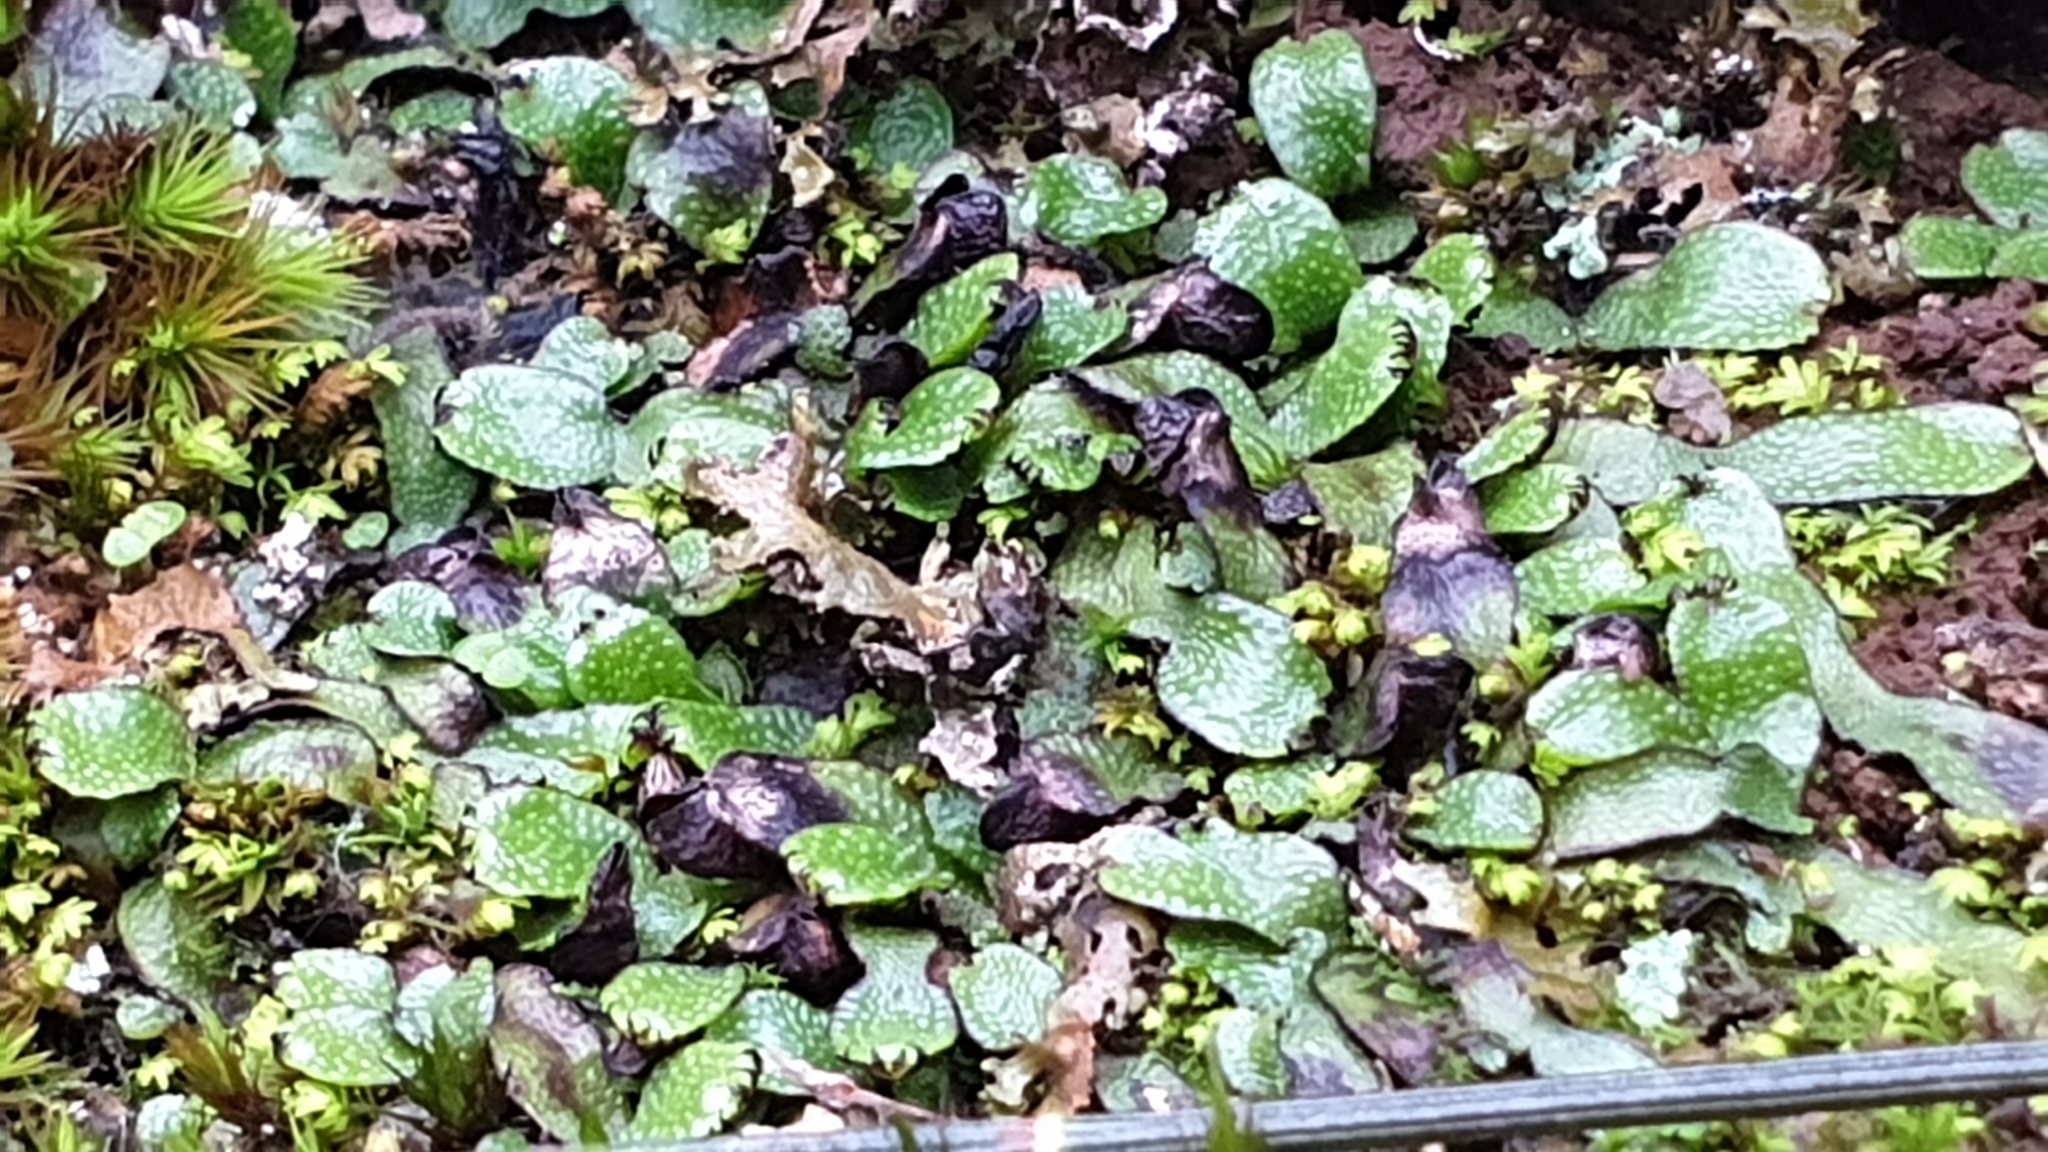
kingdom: Plantae
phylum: Marchantiophyta
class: Marchantiopsida
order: Marchantiales
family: Targioniaceae
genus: Targionia
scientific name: Targionia hypophylla
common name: Orobus-seed liverwort
